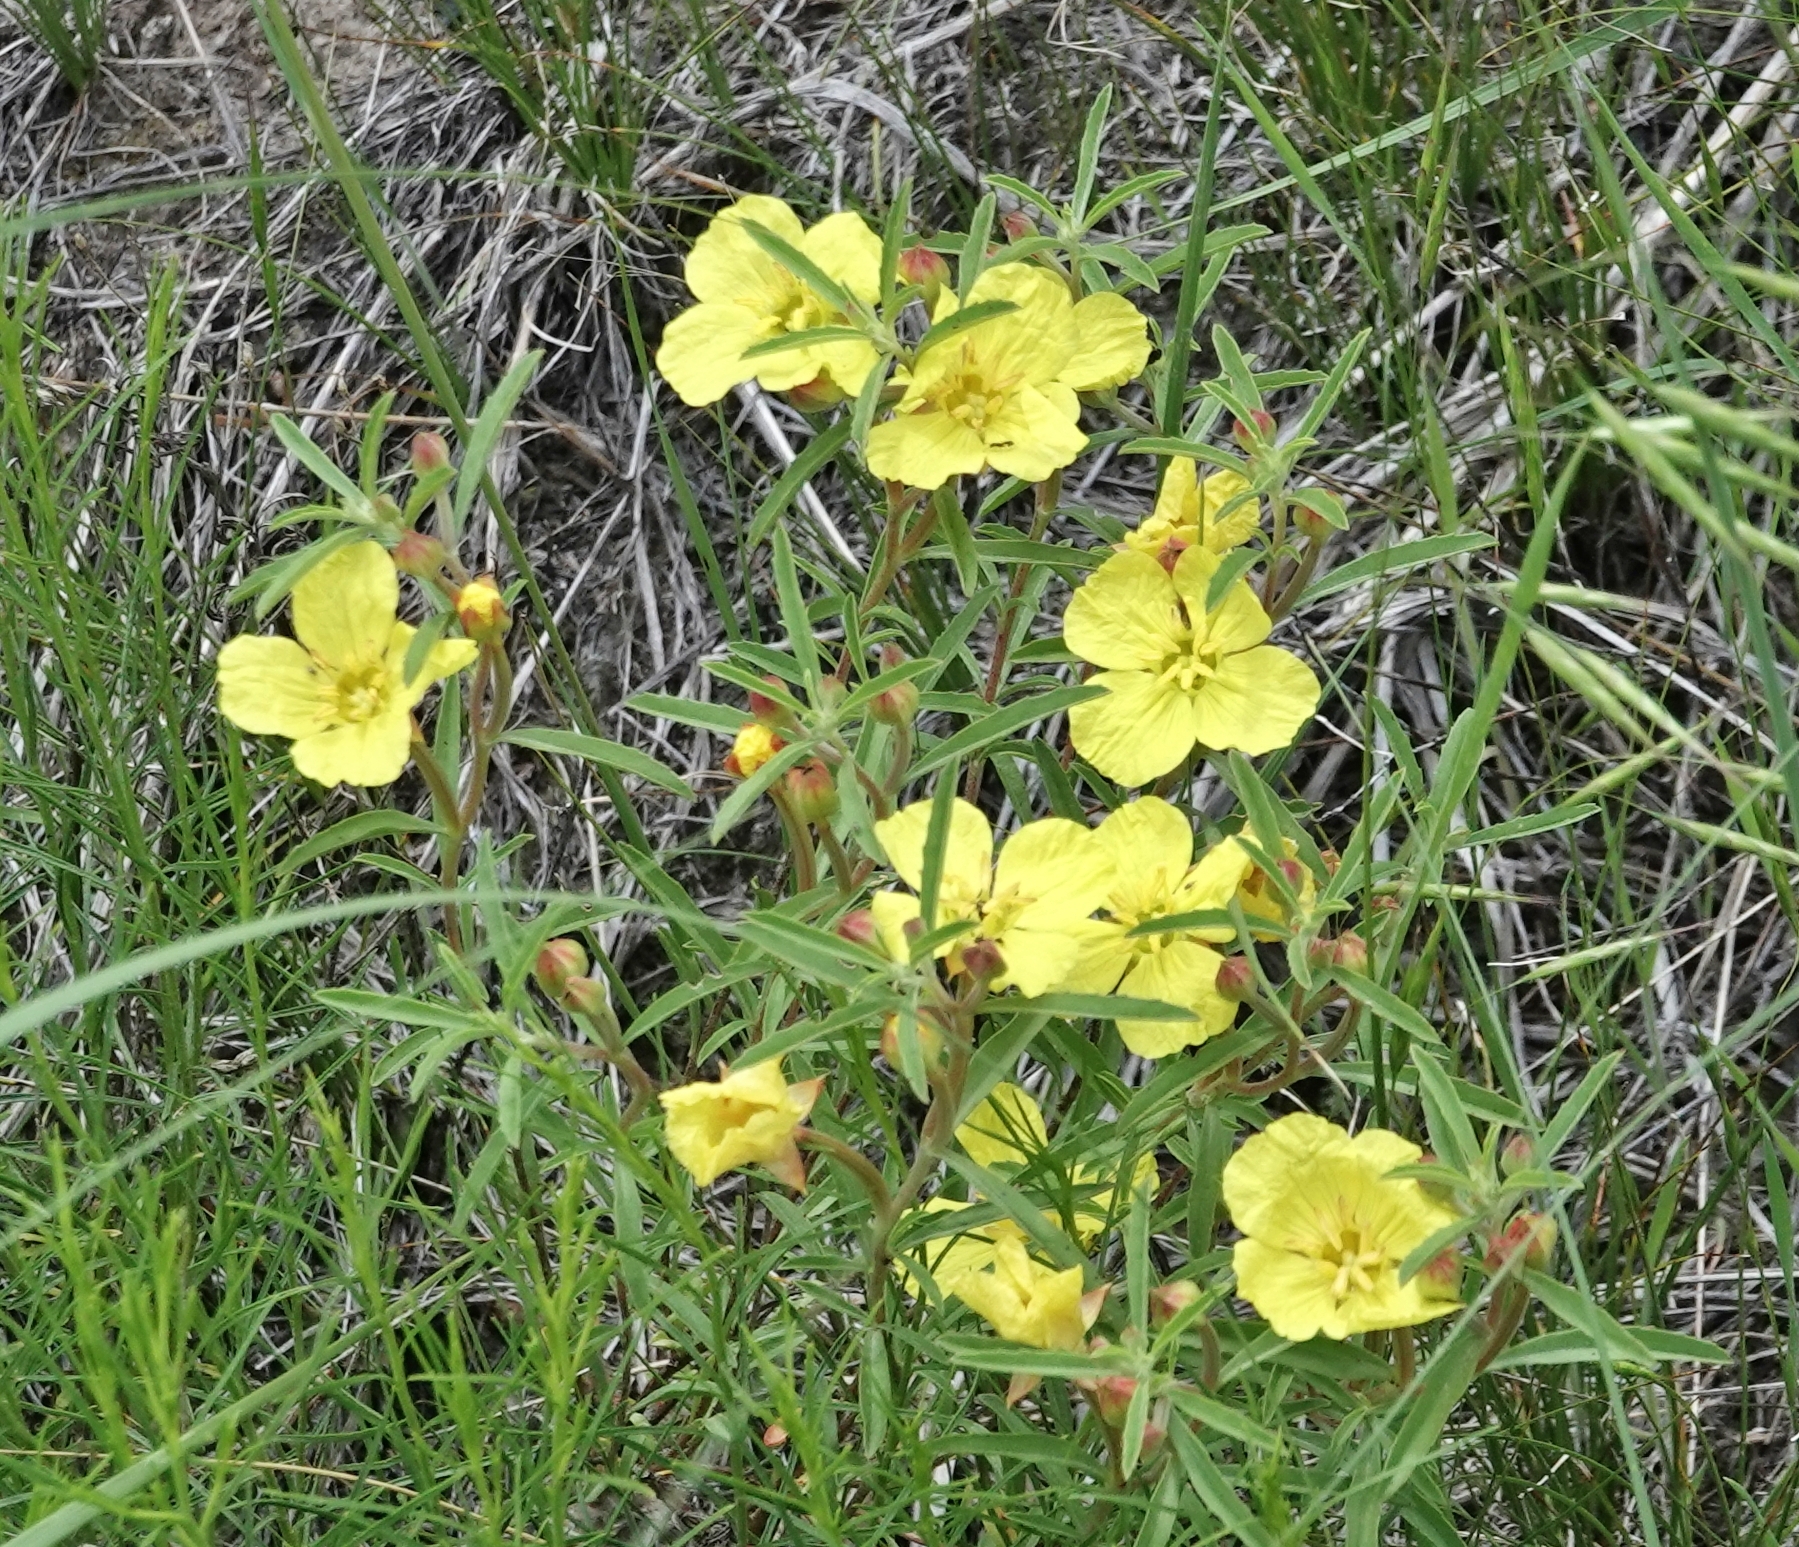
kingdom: Plantae
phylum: Tracheophyta
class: Magnoliopsida
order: Myrtales
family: Onagraceae
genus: Oenothera
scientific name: Oenothera serrulata
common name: Half-shrub calylophus
